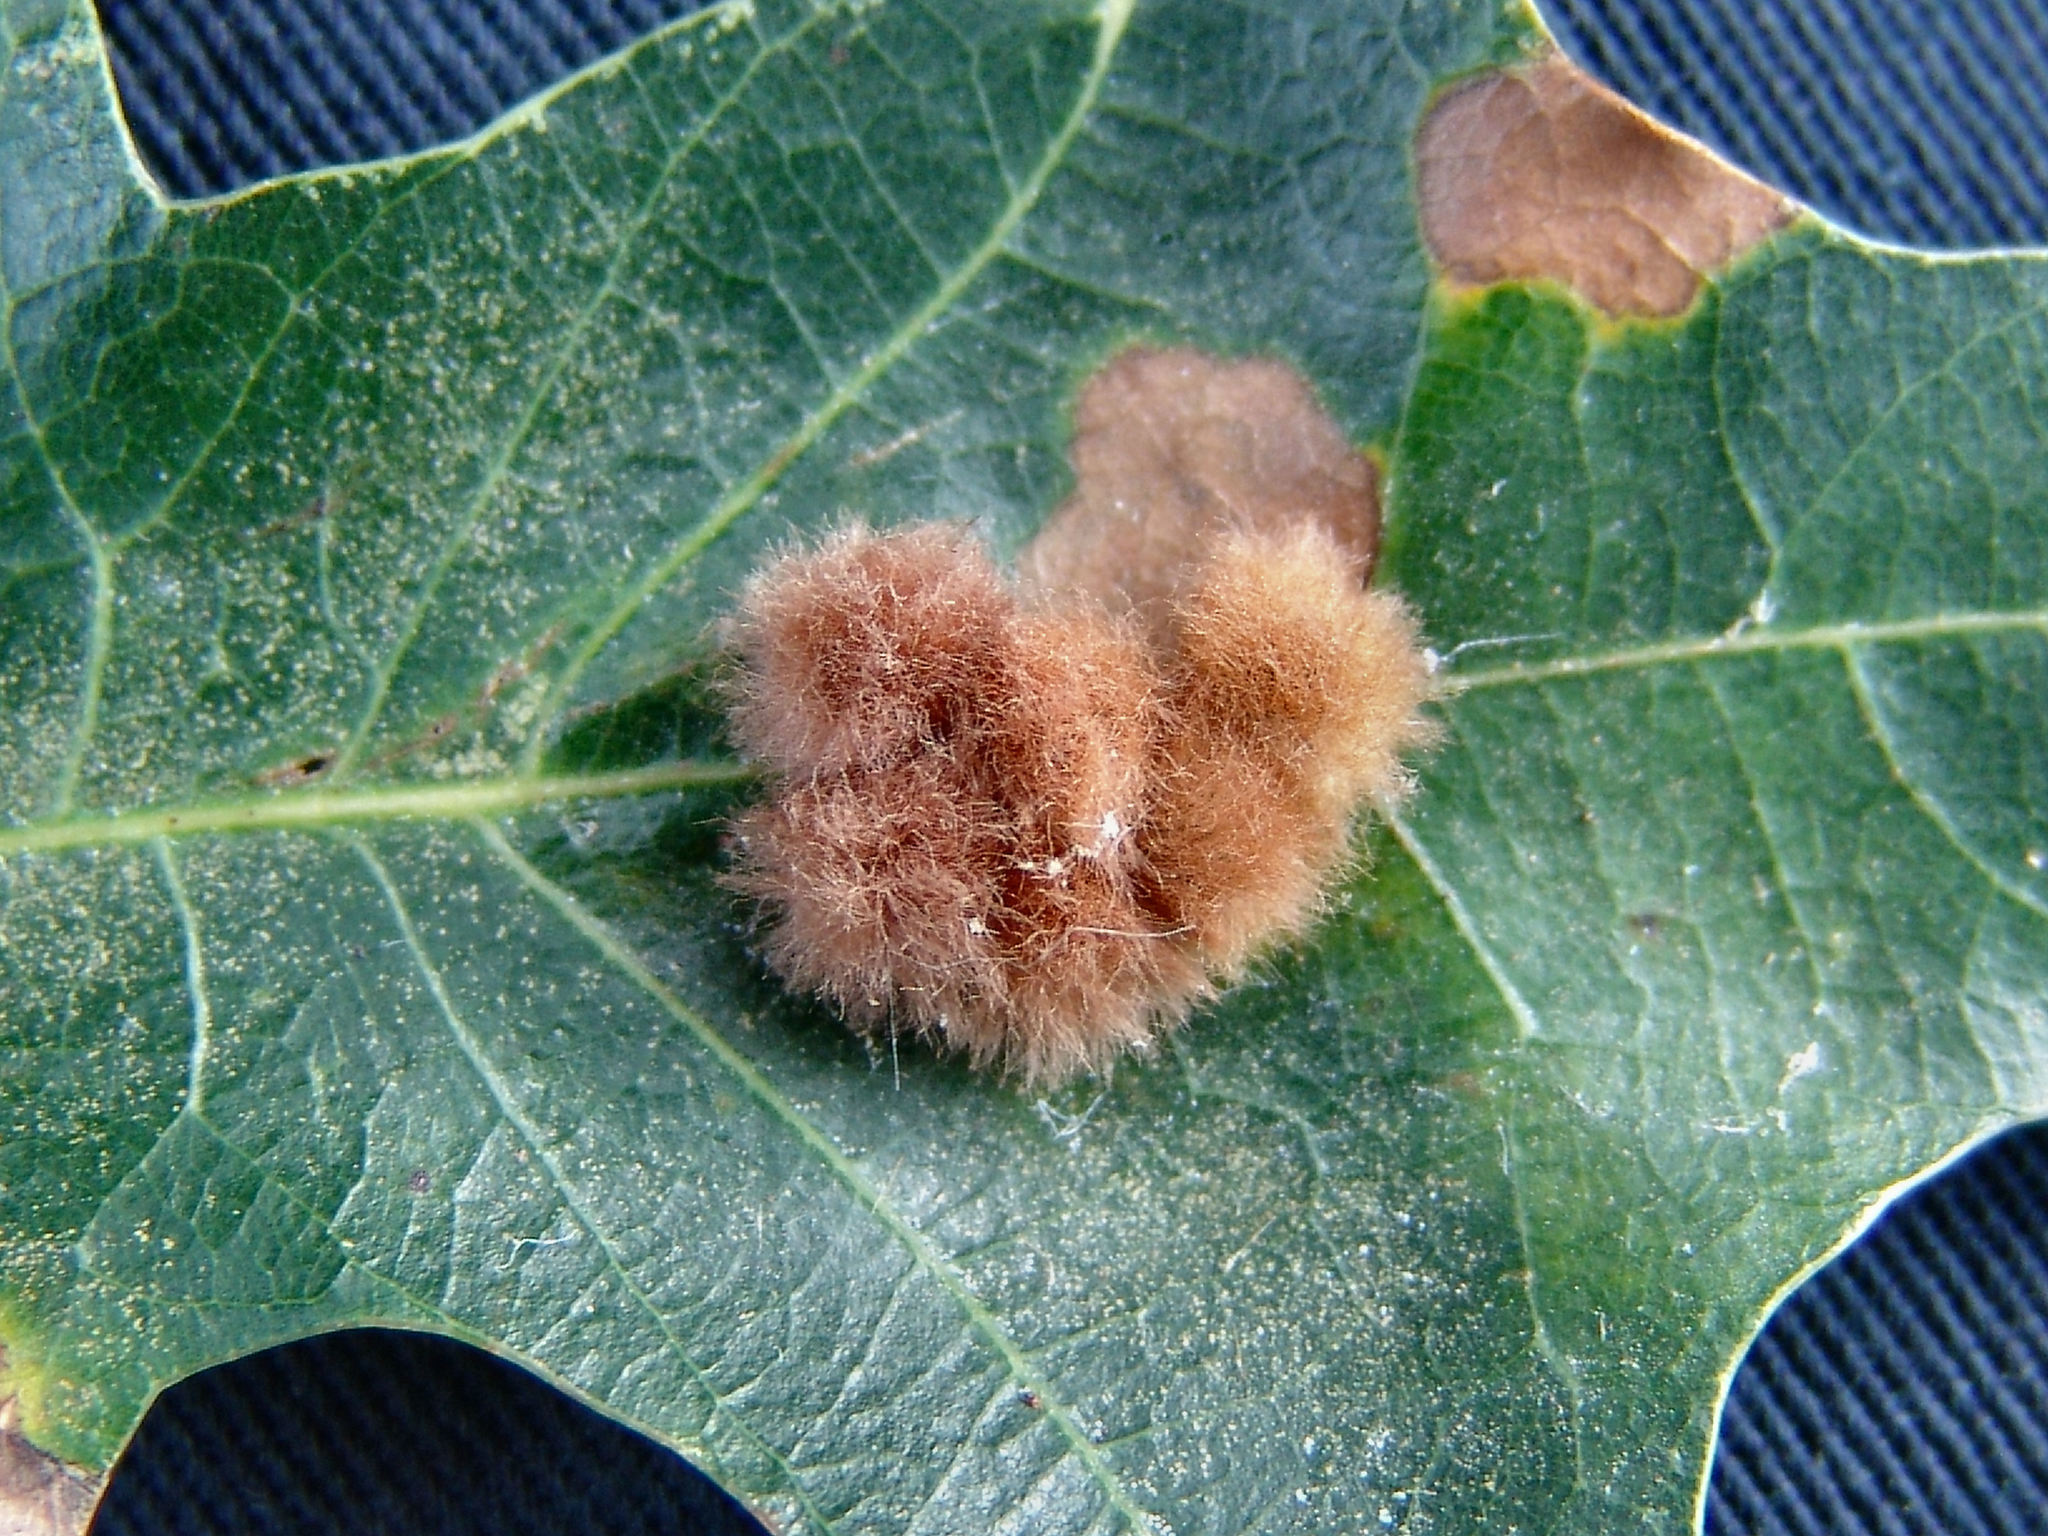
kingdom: Animalia
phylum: Arthropoda
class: Insecta
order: Hymenoptera
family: Cynipidae
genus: Callirhytis
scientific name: Callirhytis
